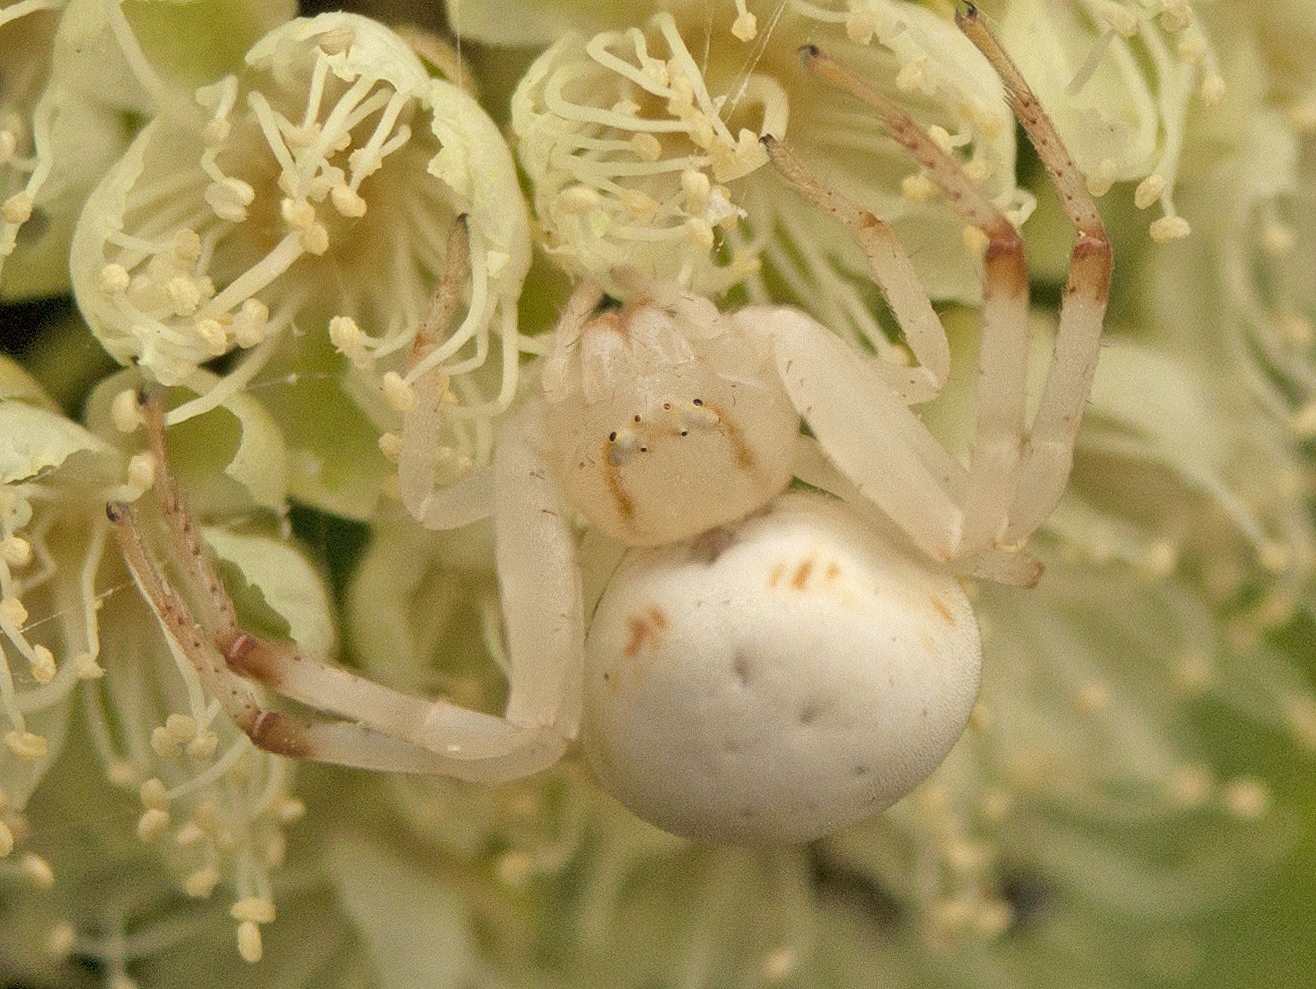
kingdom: Animalia
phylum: Arthropoda
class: Arachnida
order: Araneae
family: Thomisidae
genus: Zygometis
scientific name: Zygometis xanthogaster
